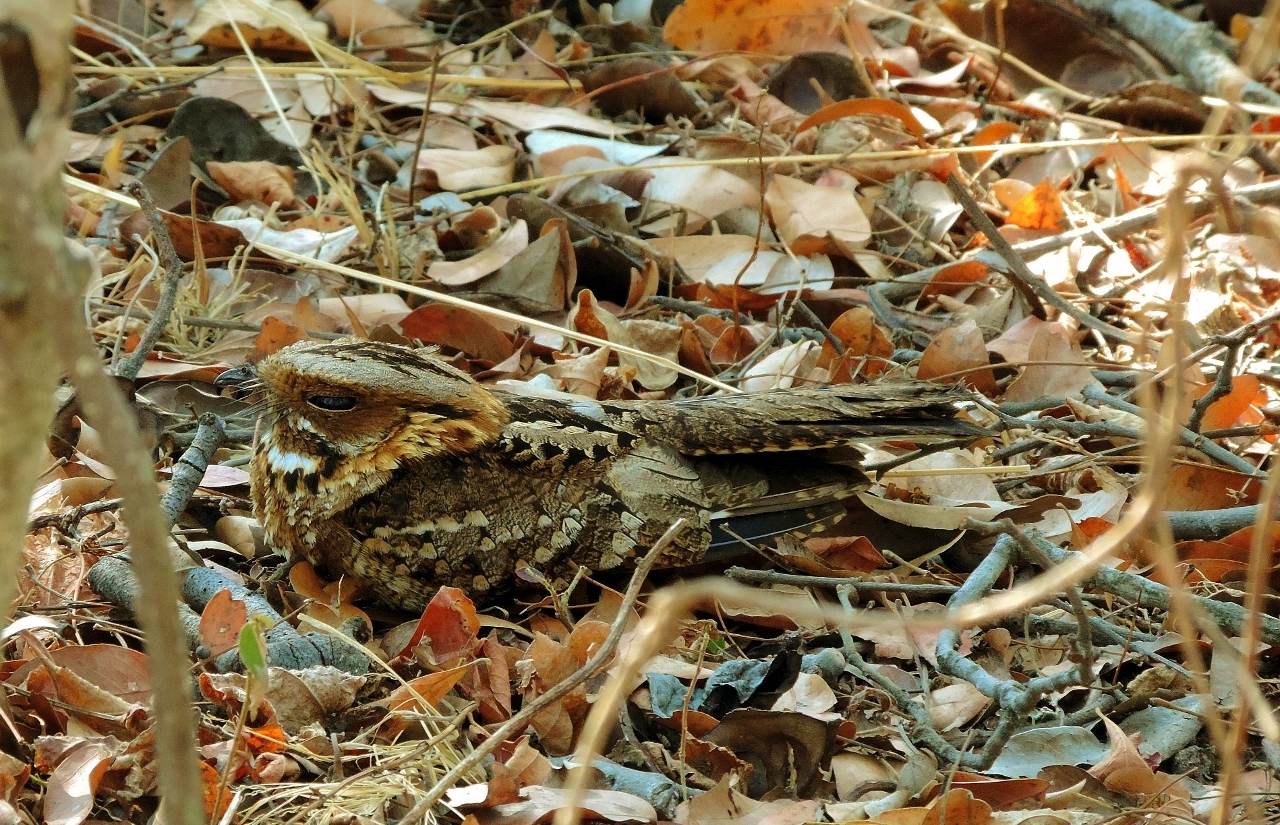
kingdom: Animalia
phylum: Chordata
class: Aves
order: Caprimulgiformes
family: Caprimulgidae
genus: Caprimulgus
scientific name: Caprimulgus pectoralis
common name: Fiery-necked nightjar
